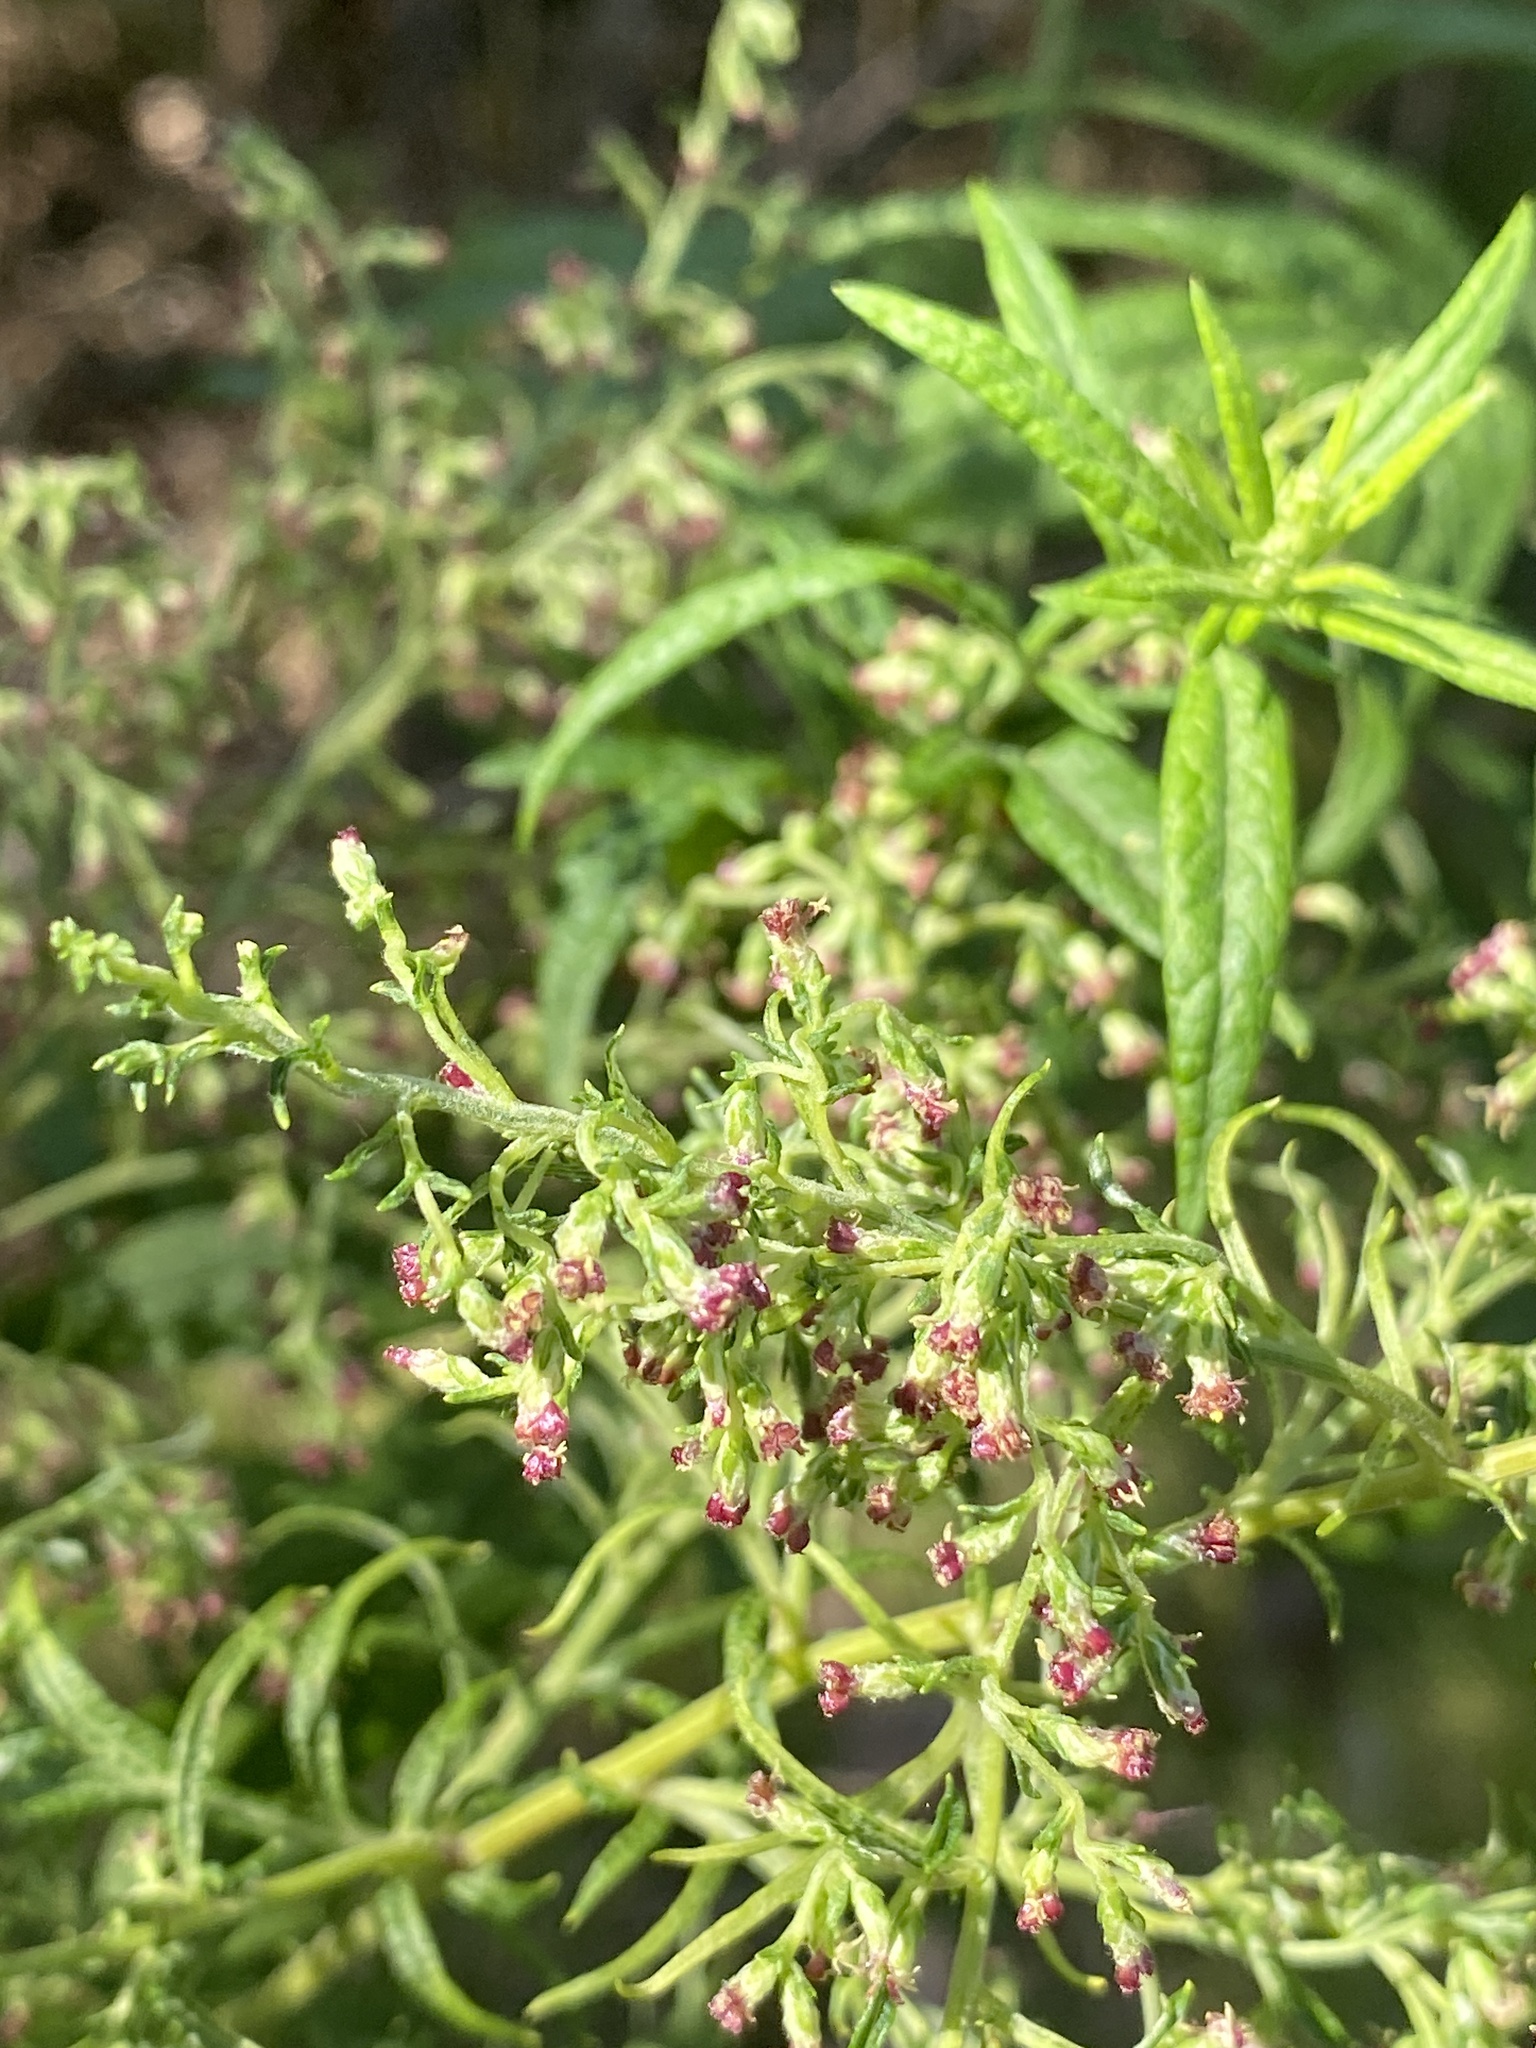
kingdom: Plantae
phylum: Tracheophyta
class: Magnoliopsida
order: Asterales
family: Asteraceae
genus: Artemisia
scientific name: Artemisia vulgaris
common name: Mugwort
